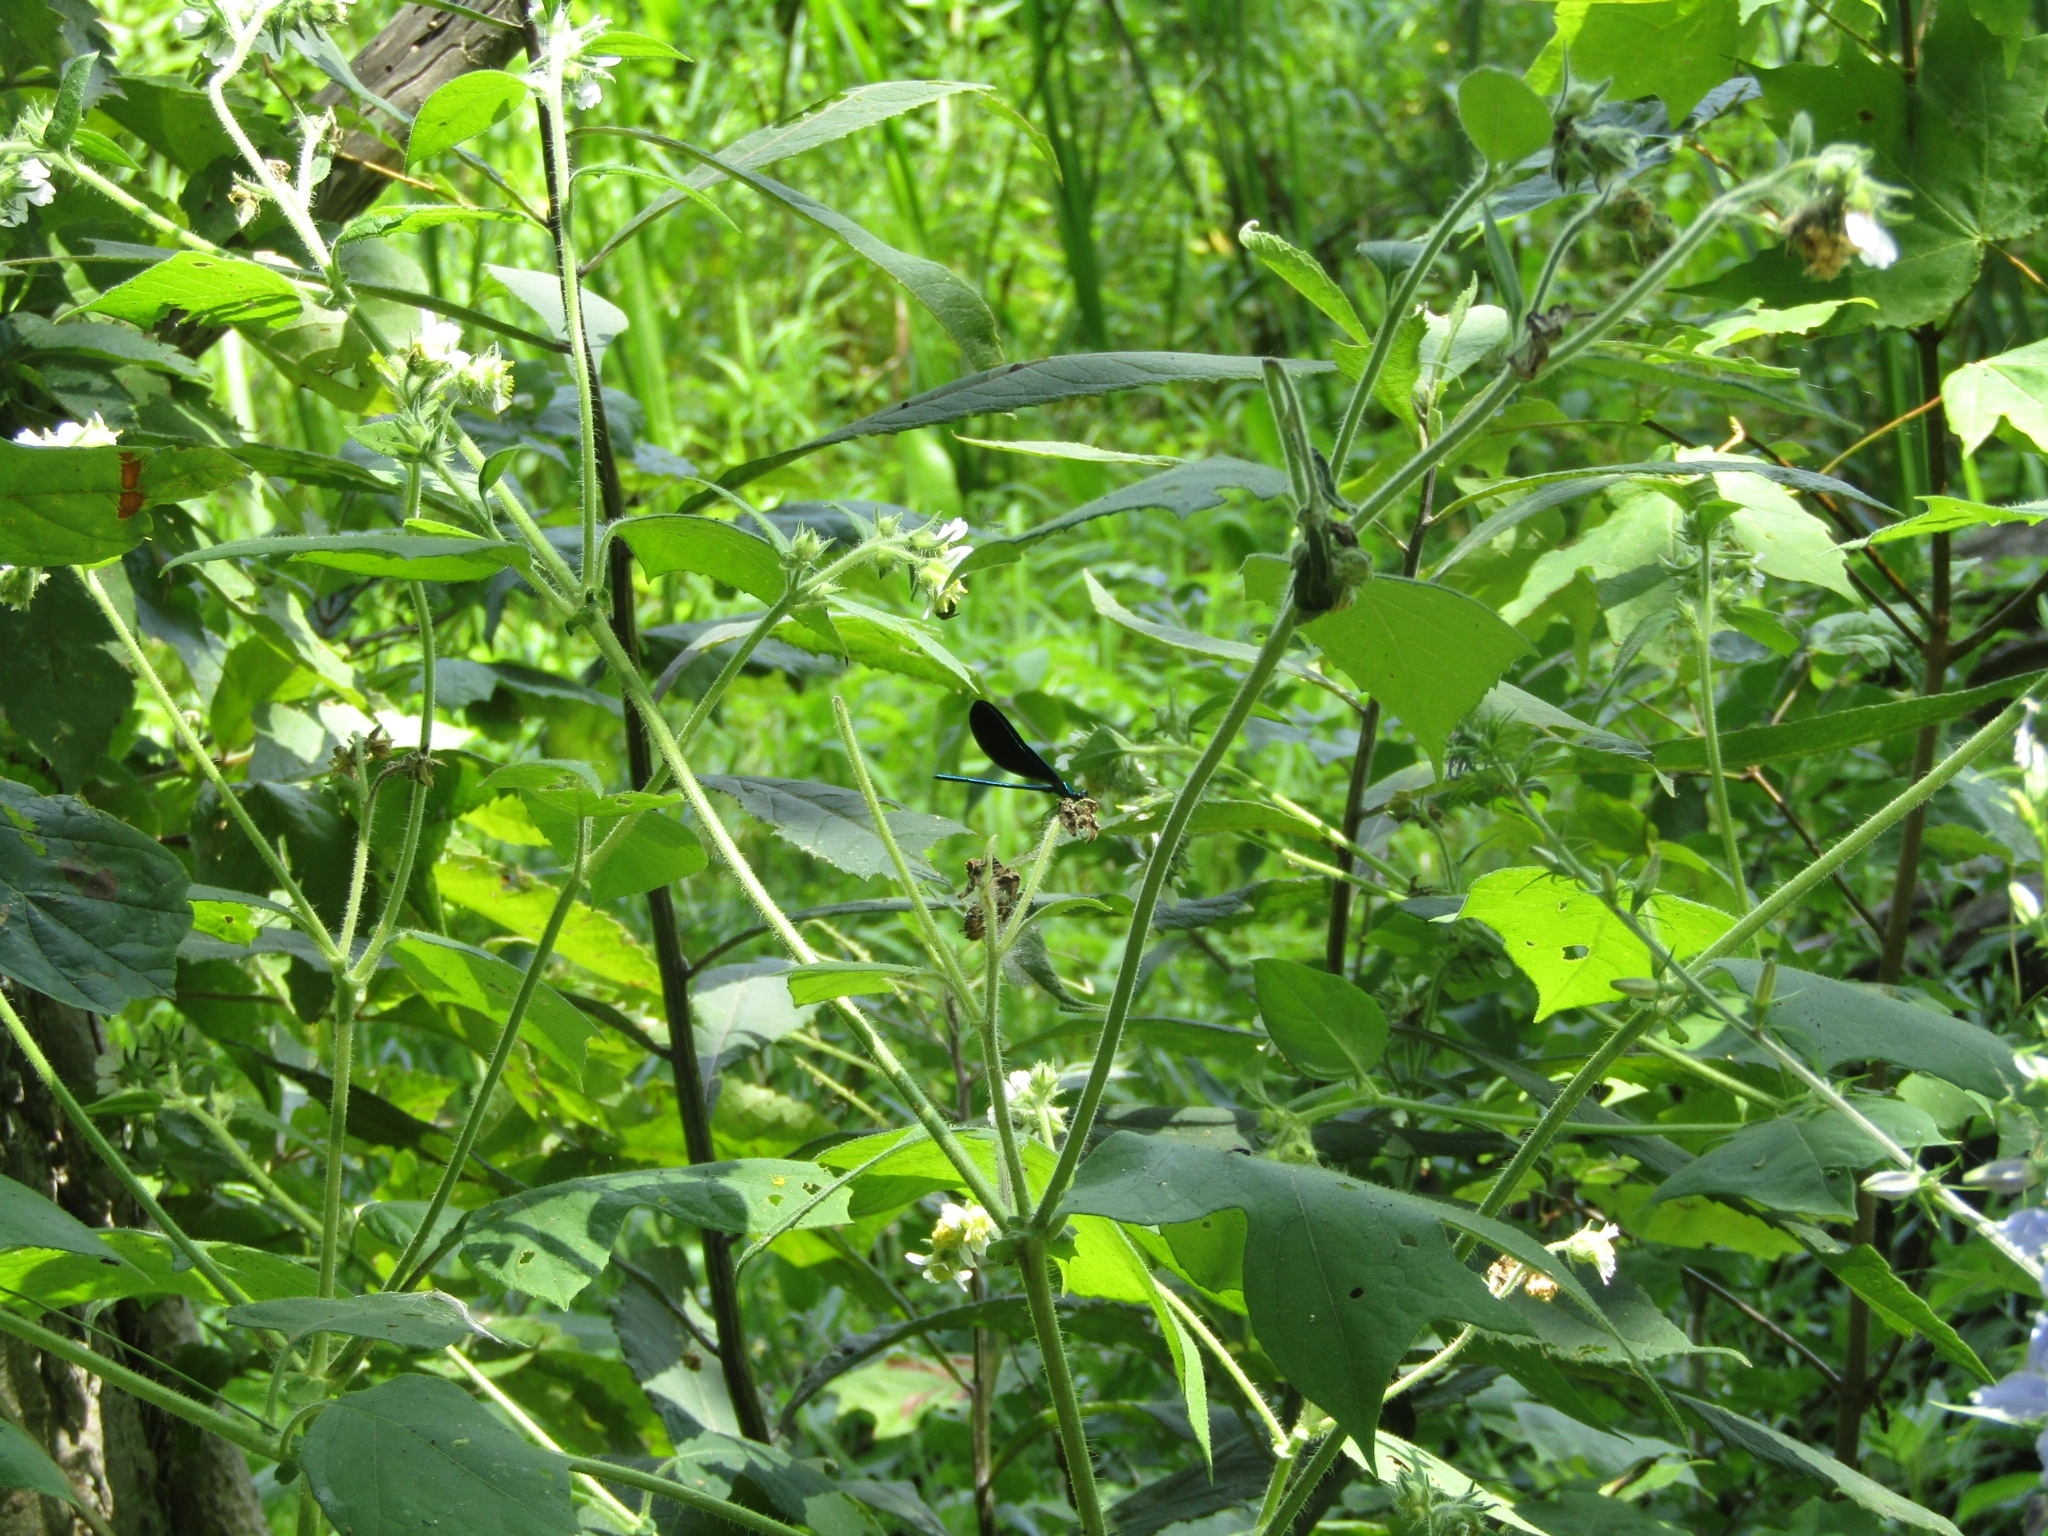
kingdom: Animalia
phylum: Arthropoda
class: Insecta
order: Odonata
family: Calopterygidae
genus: Calopteryx
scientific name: Calopteryx maculata
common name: Ebony jewelwing
